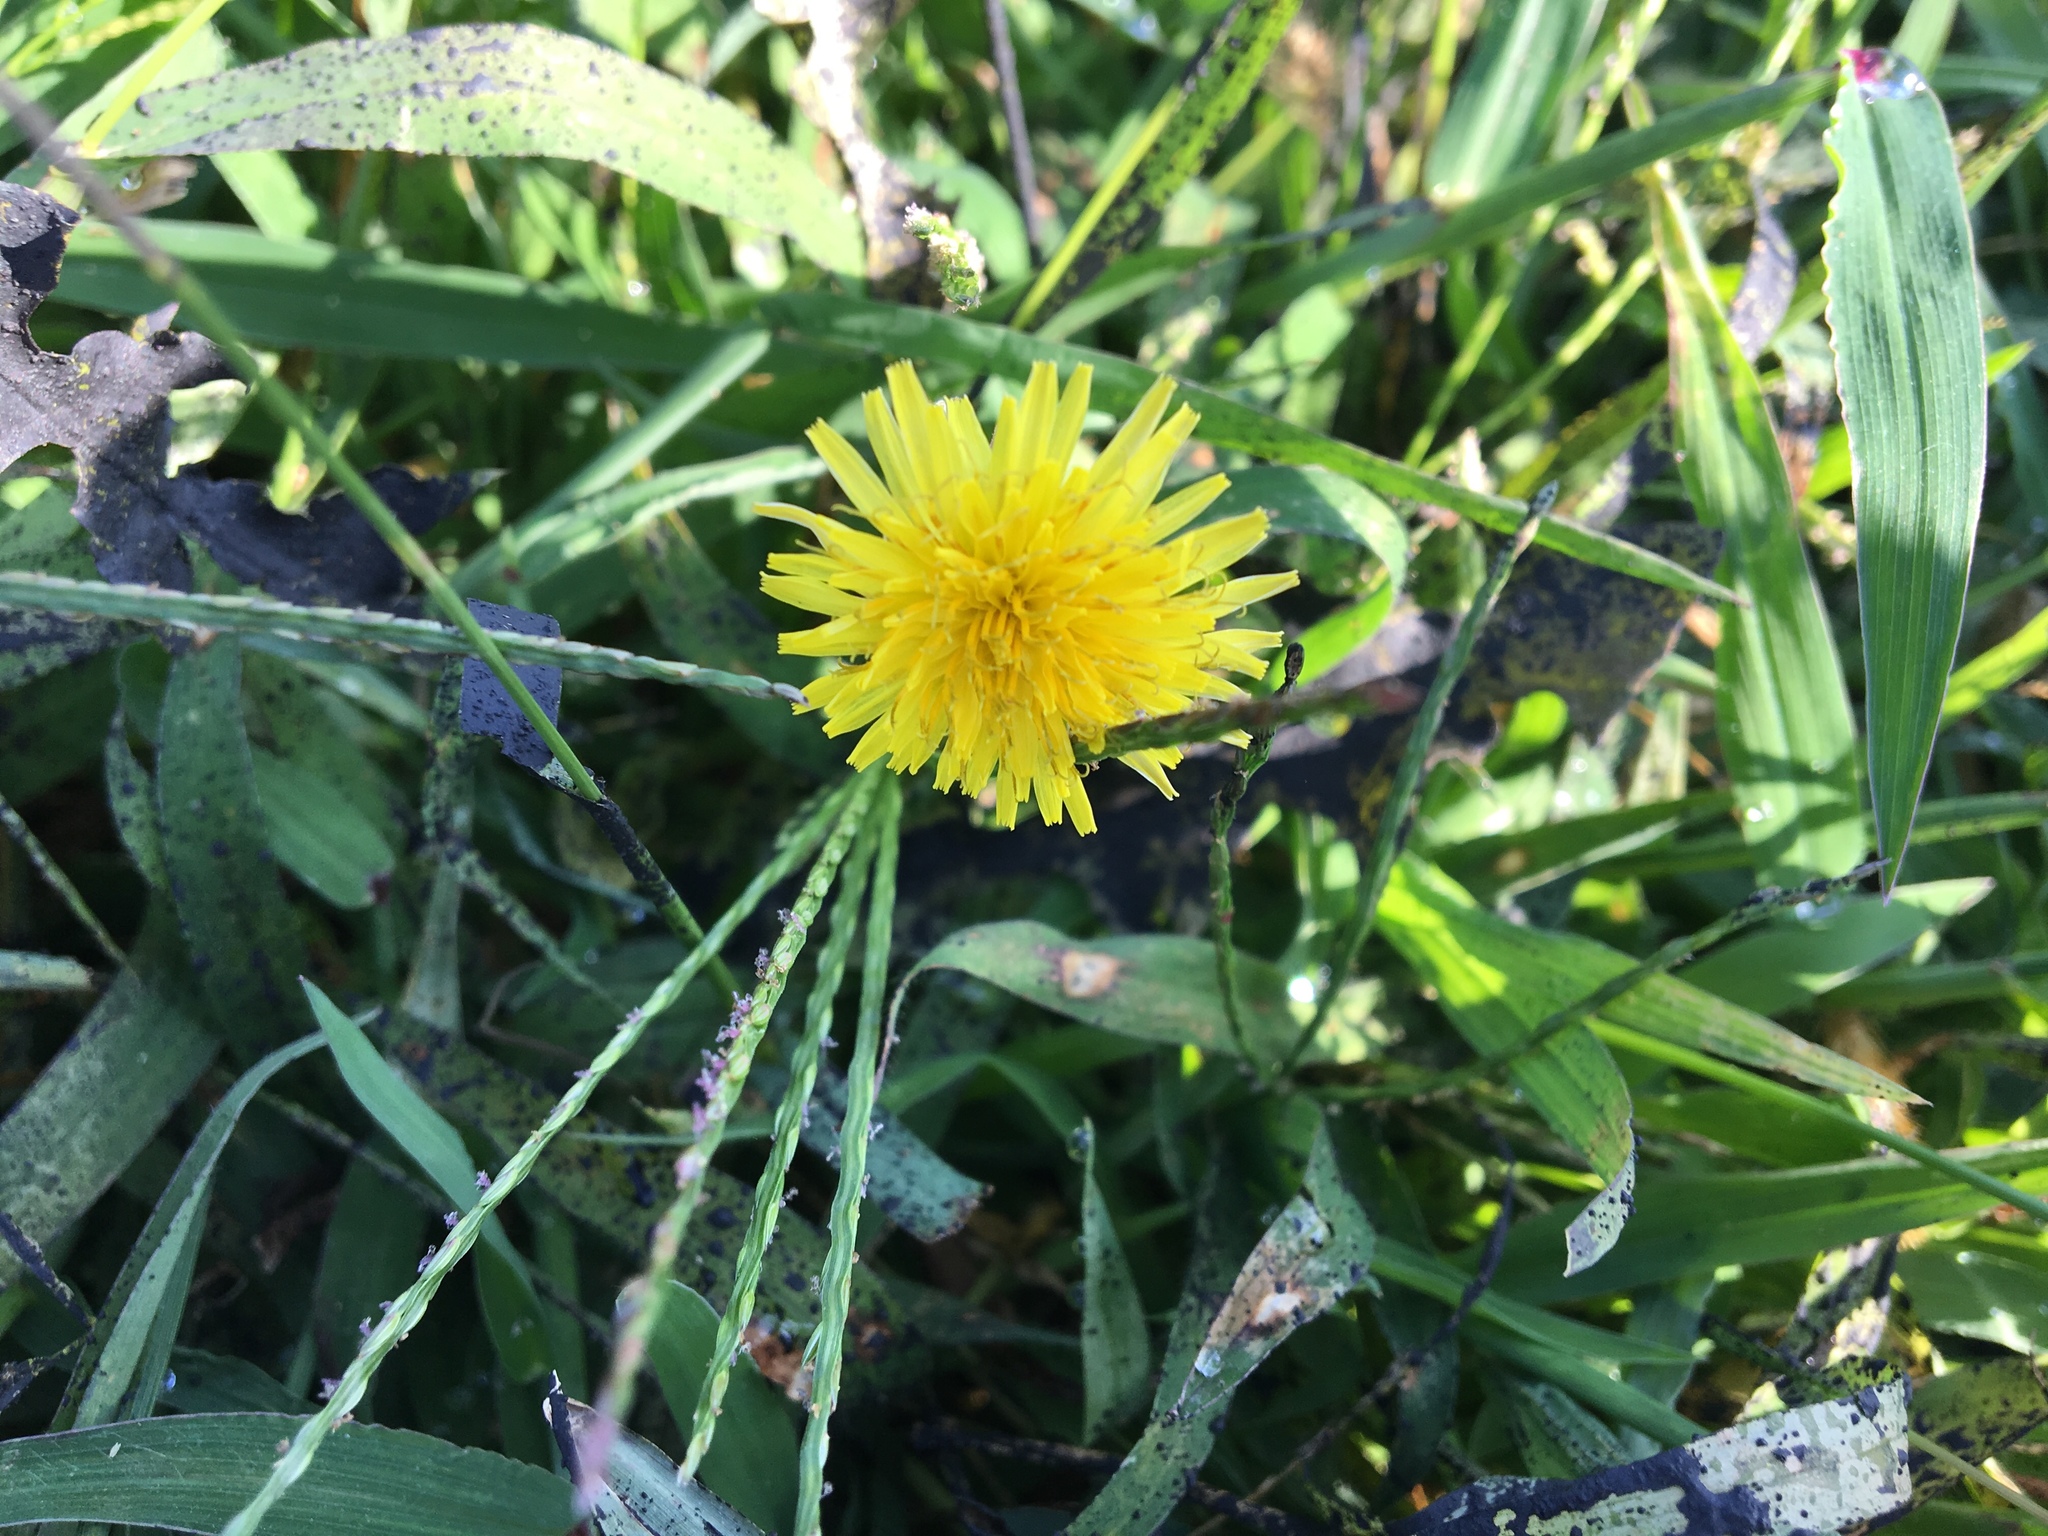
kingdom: Plantae
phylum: Tracheophyta
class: Magnoliopsida
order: Asterales
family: Asteraceae
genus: Taraxacum
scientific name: Taraxacum officinale
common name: Common dandelion
